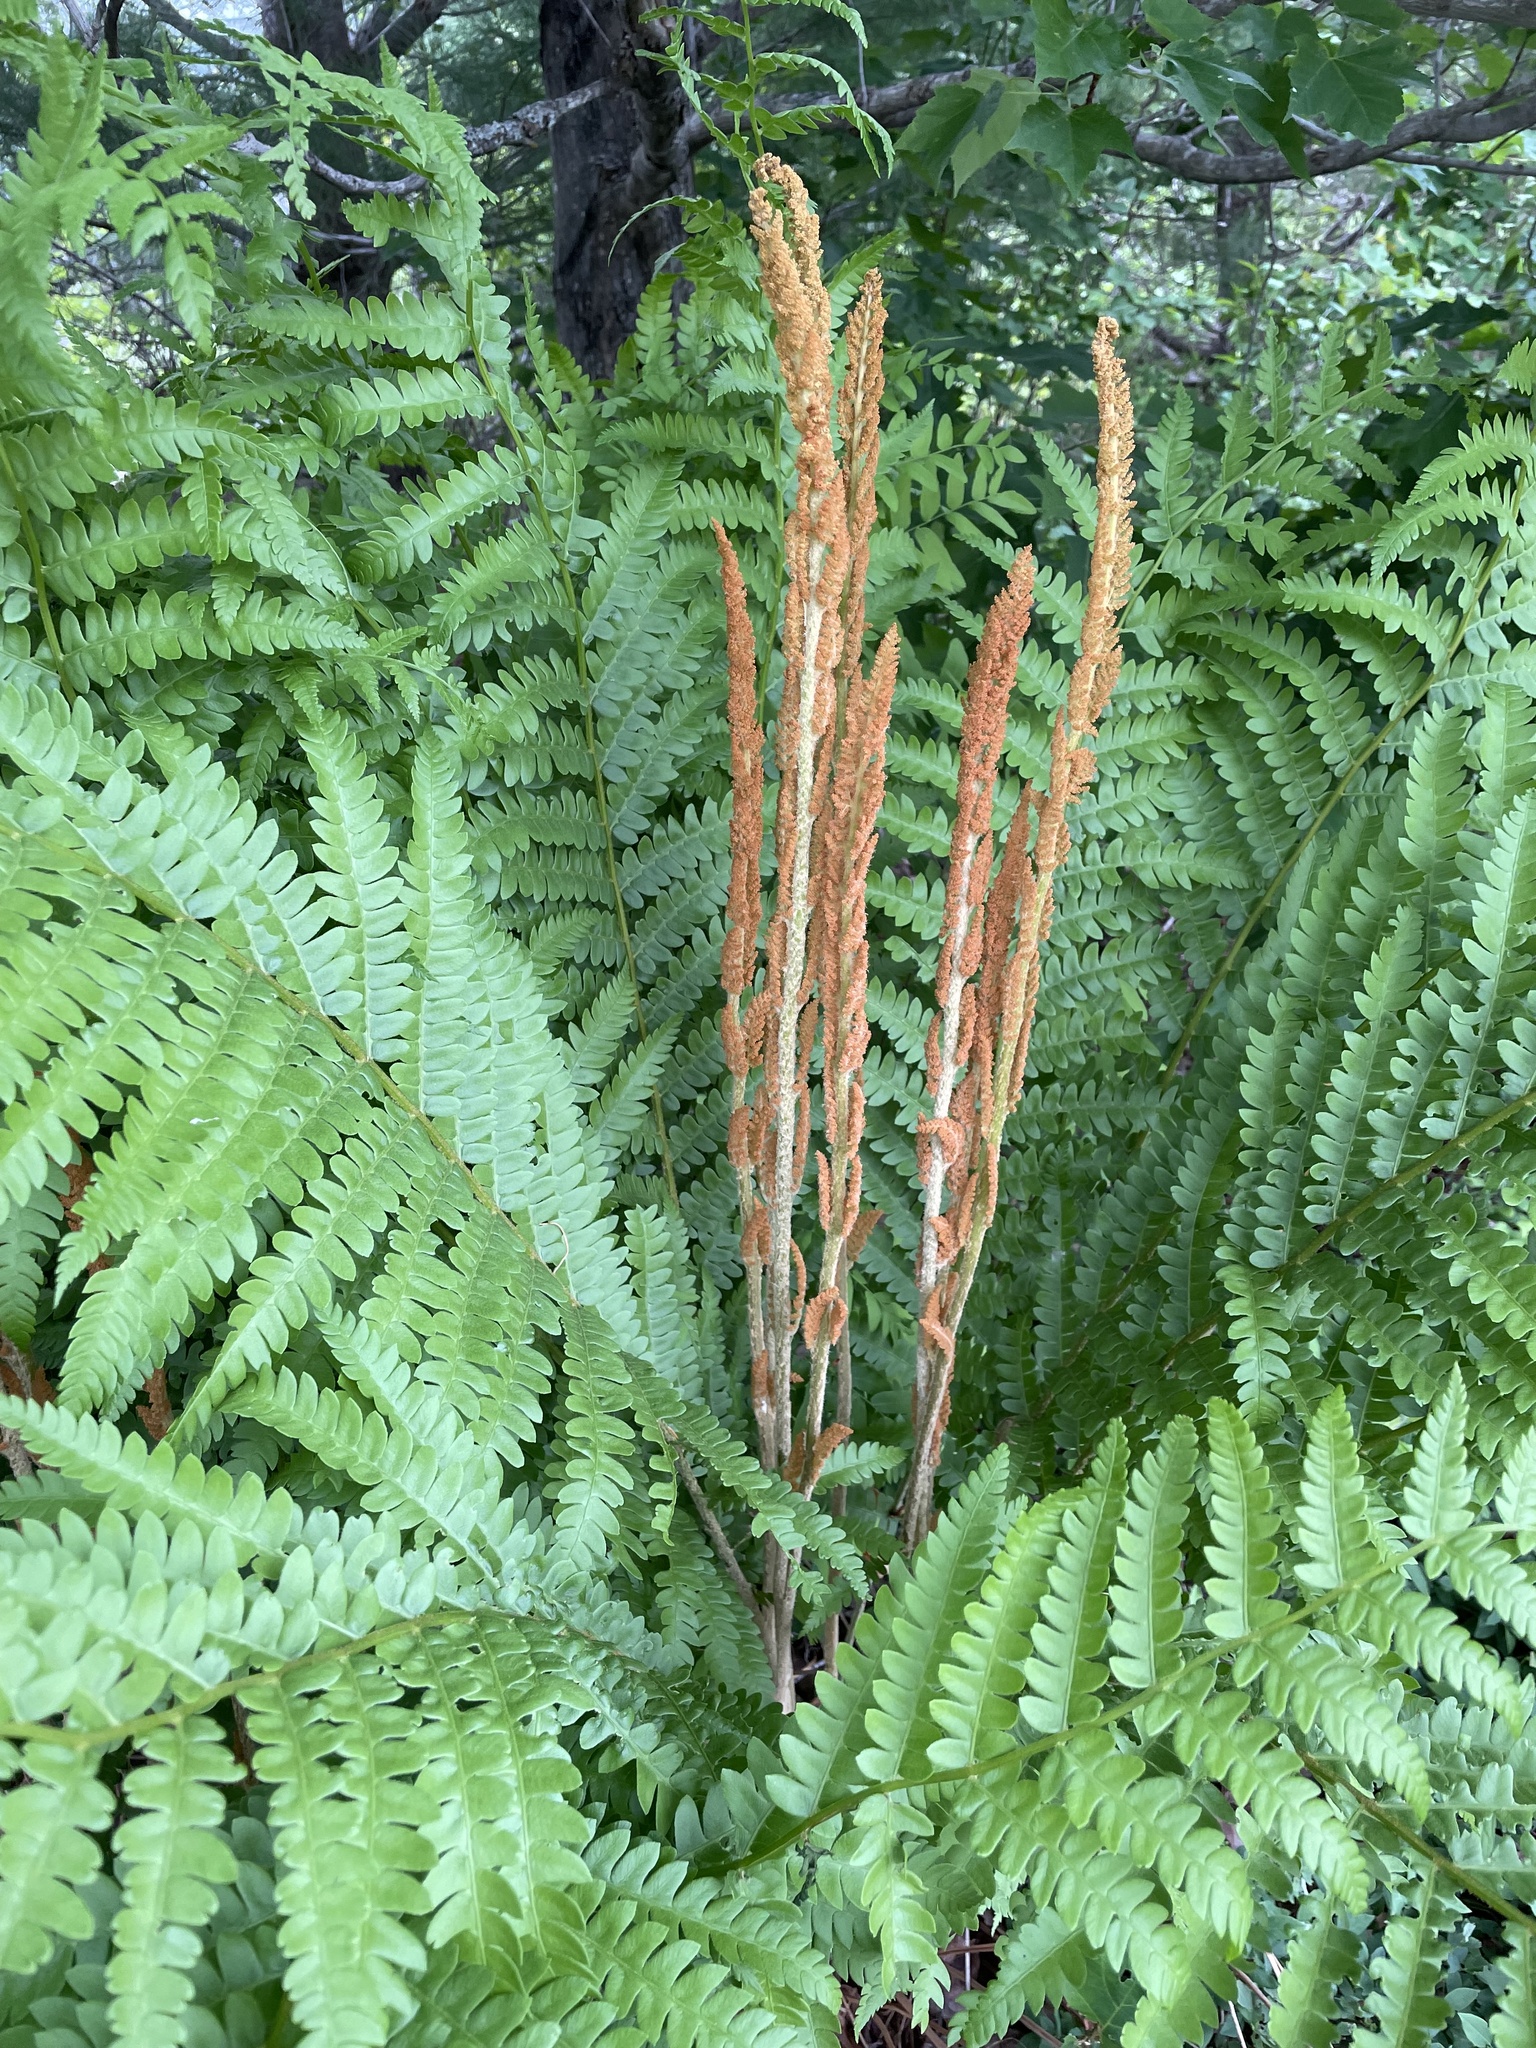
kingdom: Plantae
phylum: Tracheophyta
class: Polypodiopsida
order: Osmundales
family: Osmundaceae
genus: Osmundastrum
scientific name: Osmundastrum cinnamomeum
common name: Cinnamon fern
